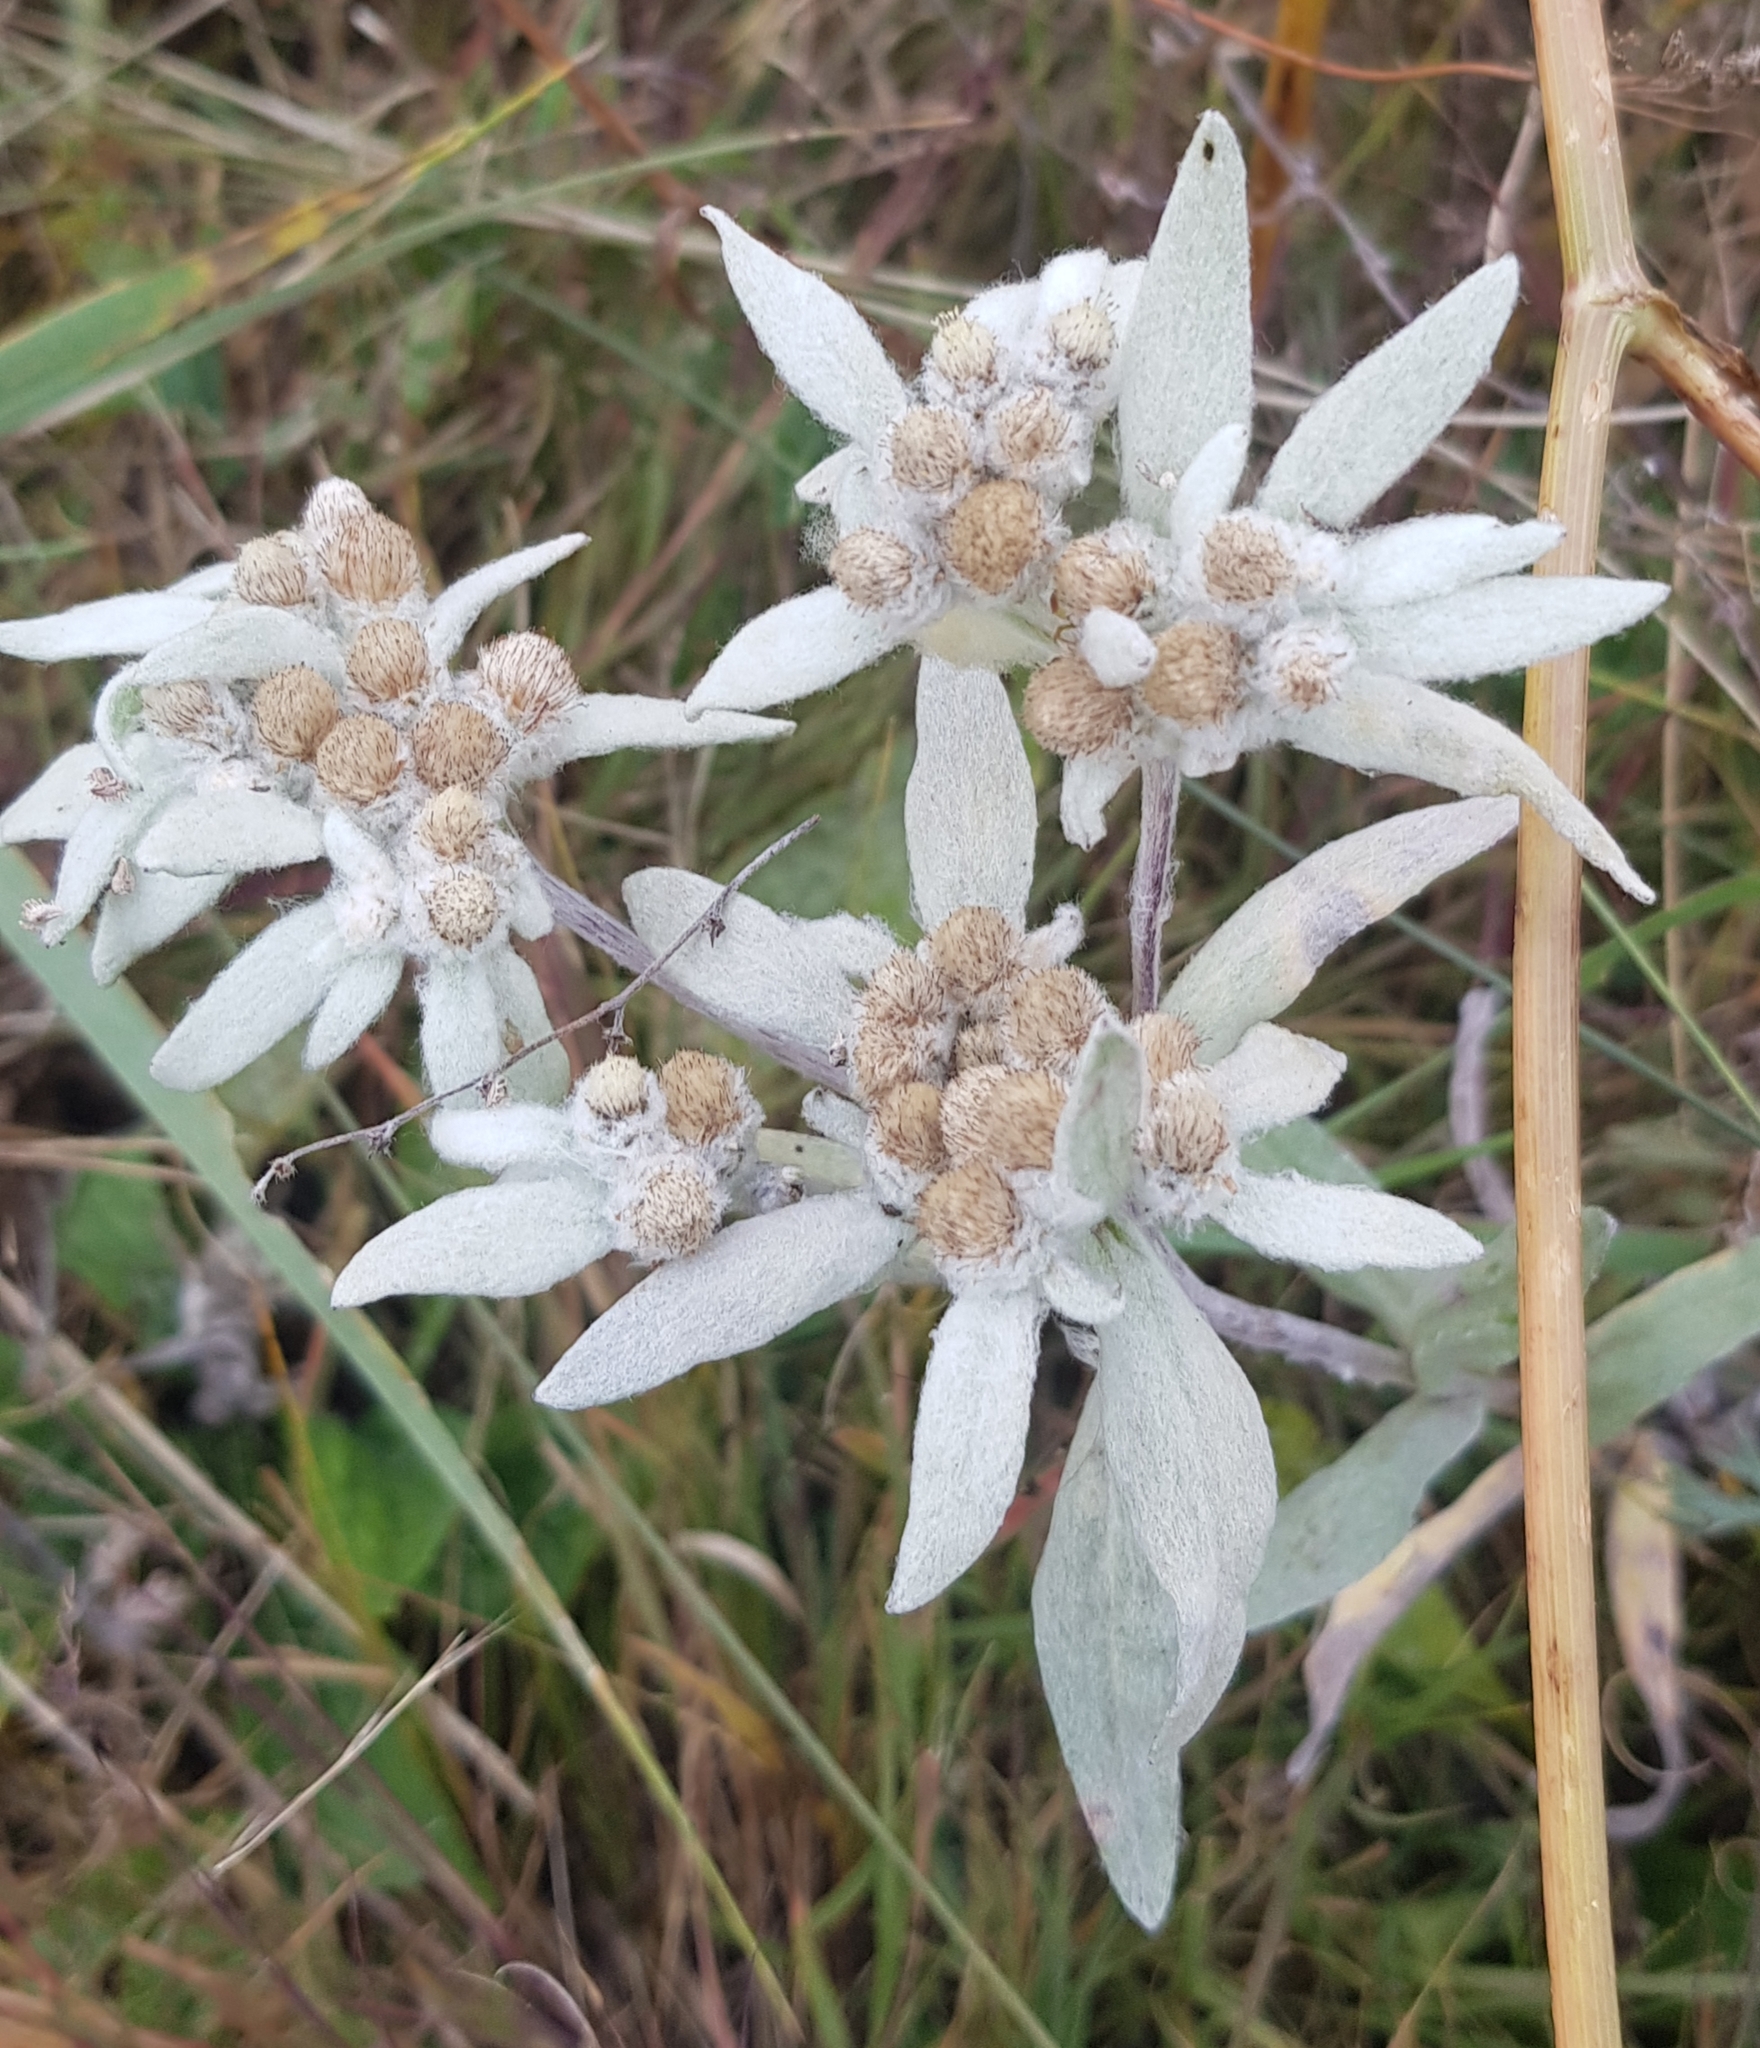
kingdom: Plantae
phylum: Tracheophyta
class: Magnoliopsida
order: Asterales
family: Asteraceae
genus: Leontopodium
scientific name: Leontopodium palibinianum
